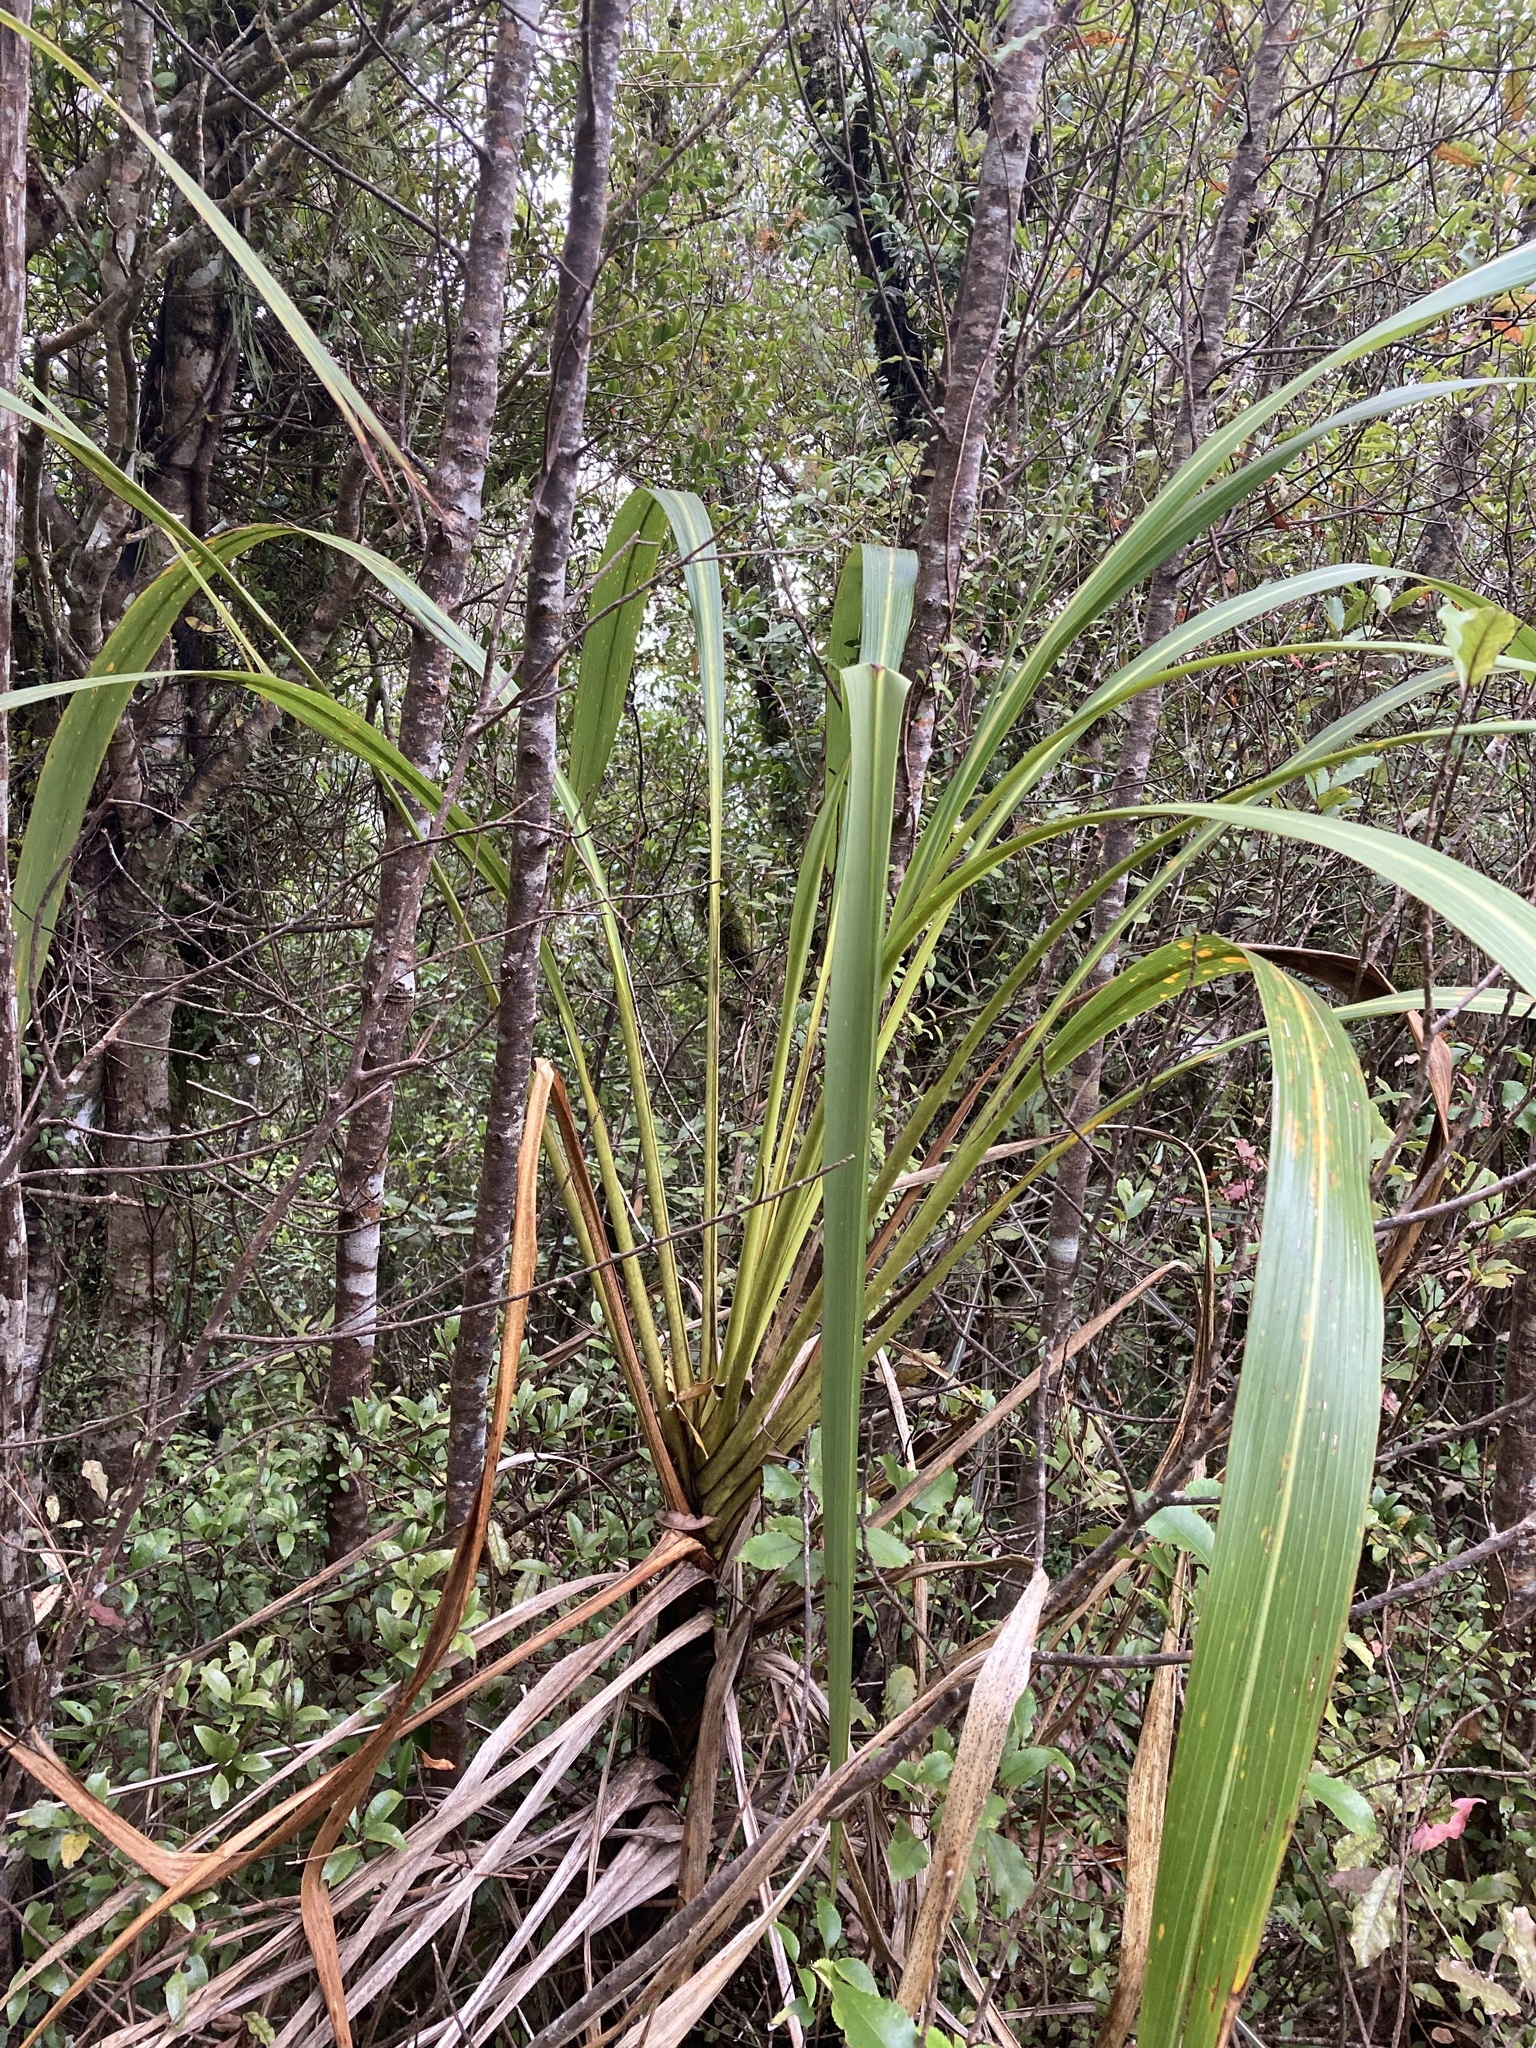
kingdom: Plantae
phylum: Tracheophyta
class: Liliopsida
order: Asparagales
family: Asparagaceae
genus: Cordyline
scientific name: Cordyline banksii
